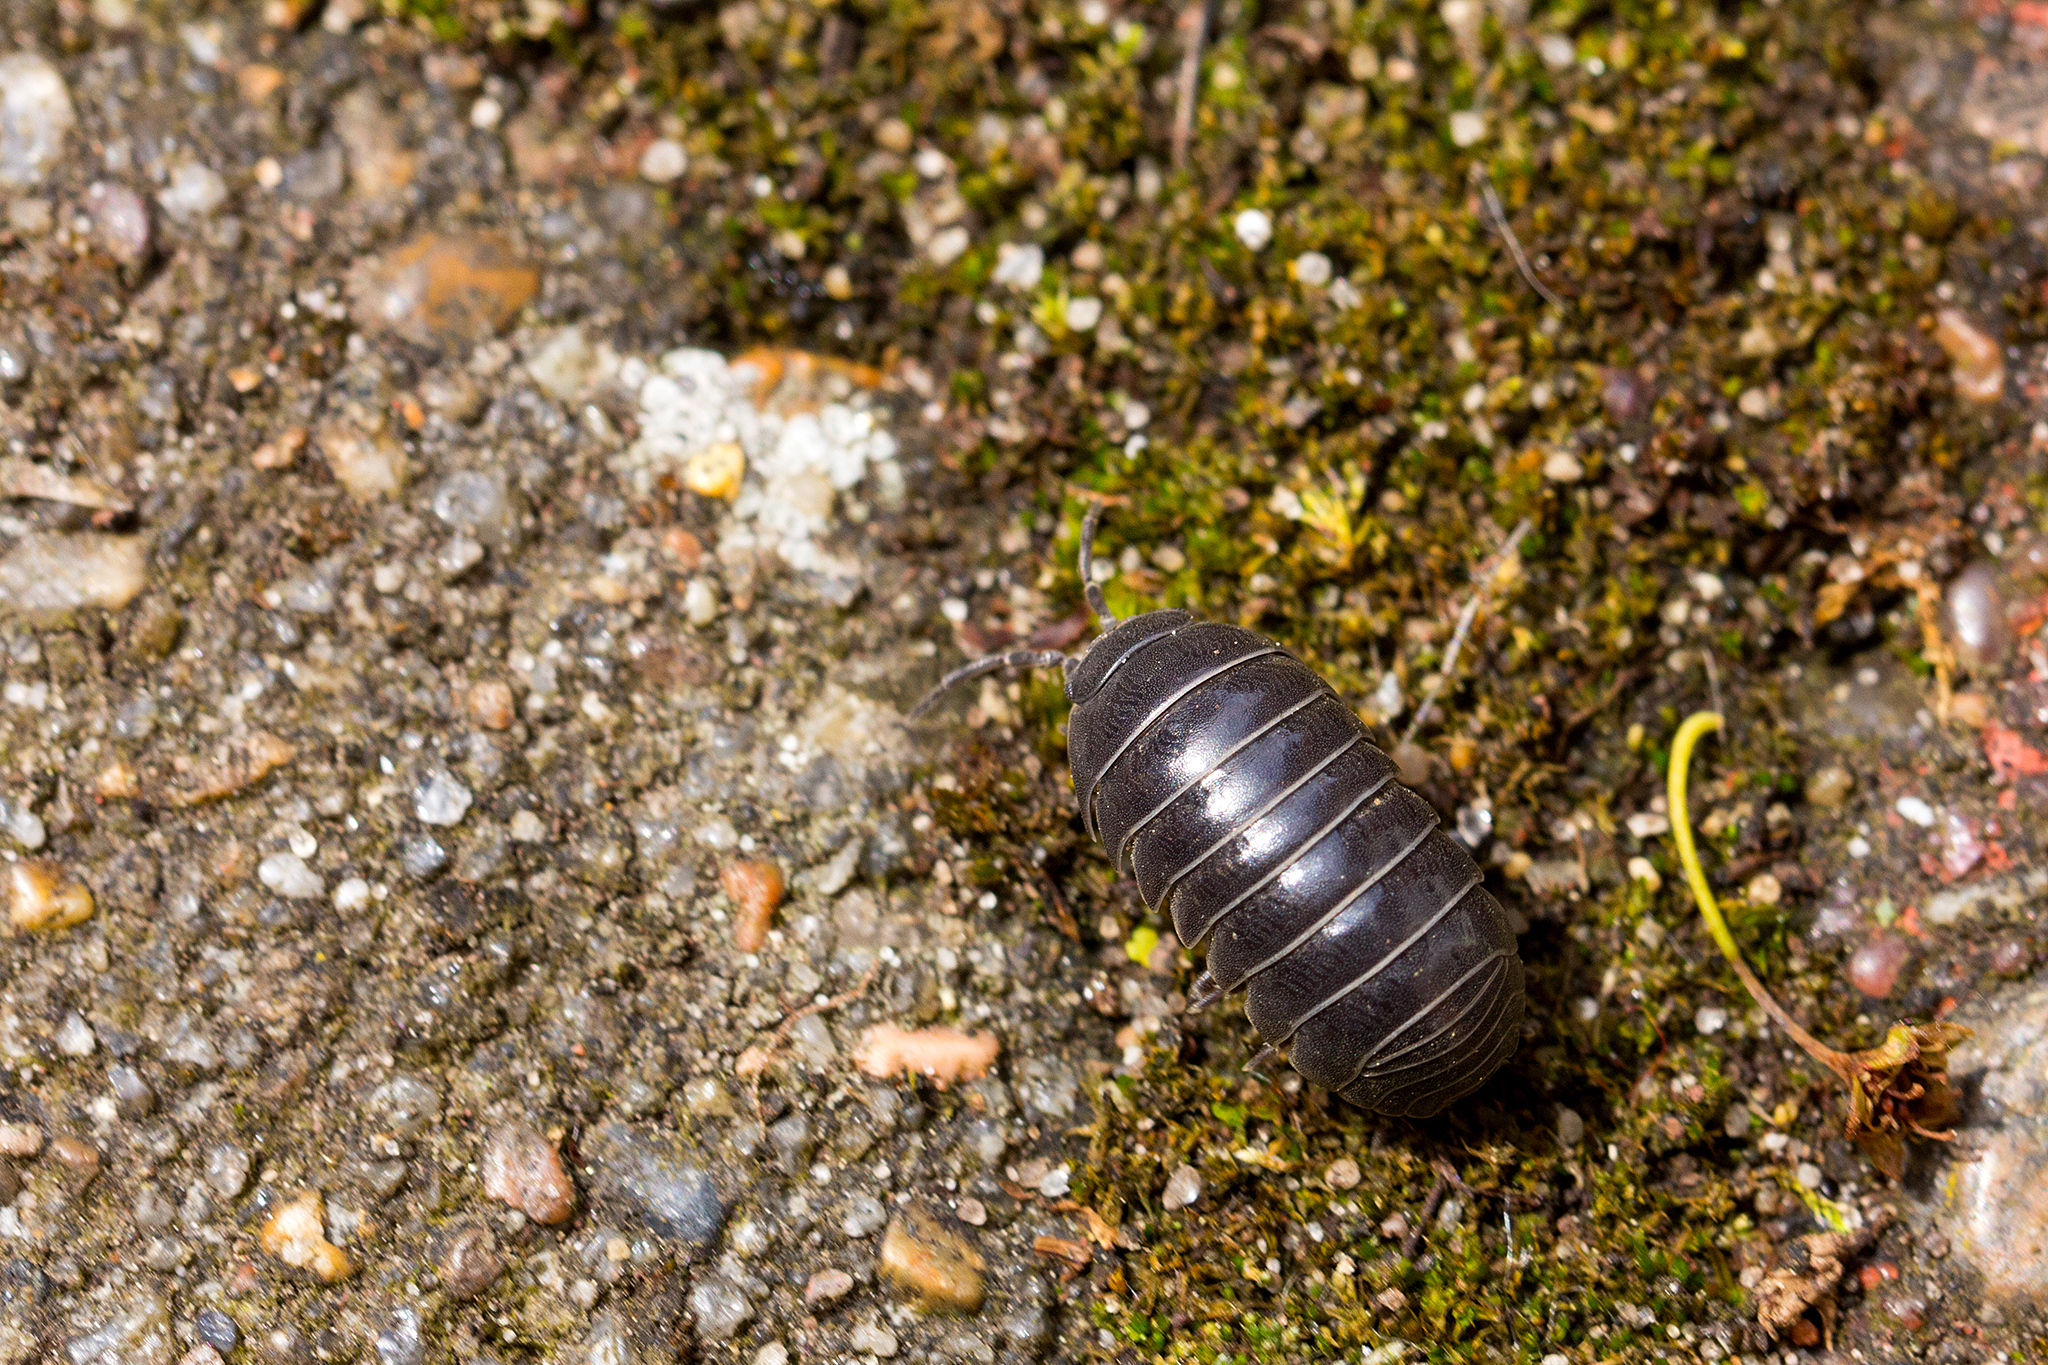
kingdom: Animalia
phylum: Arthropoda
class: Malacostraca
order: Isopoda
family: Armadillidiidae
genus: Armadillidium
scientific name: Armadillidium vulgare
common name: Common pill woodlouse
